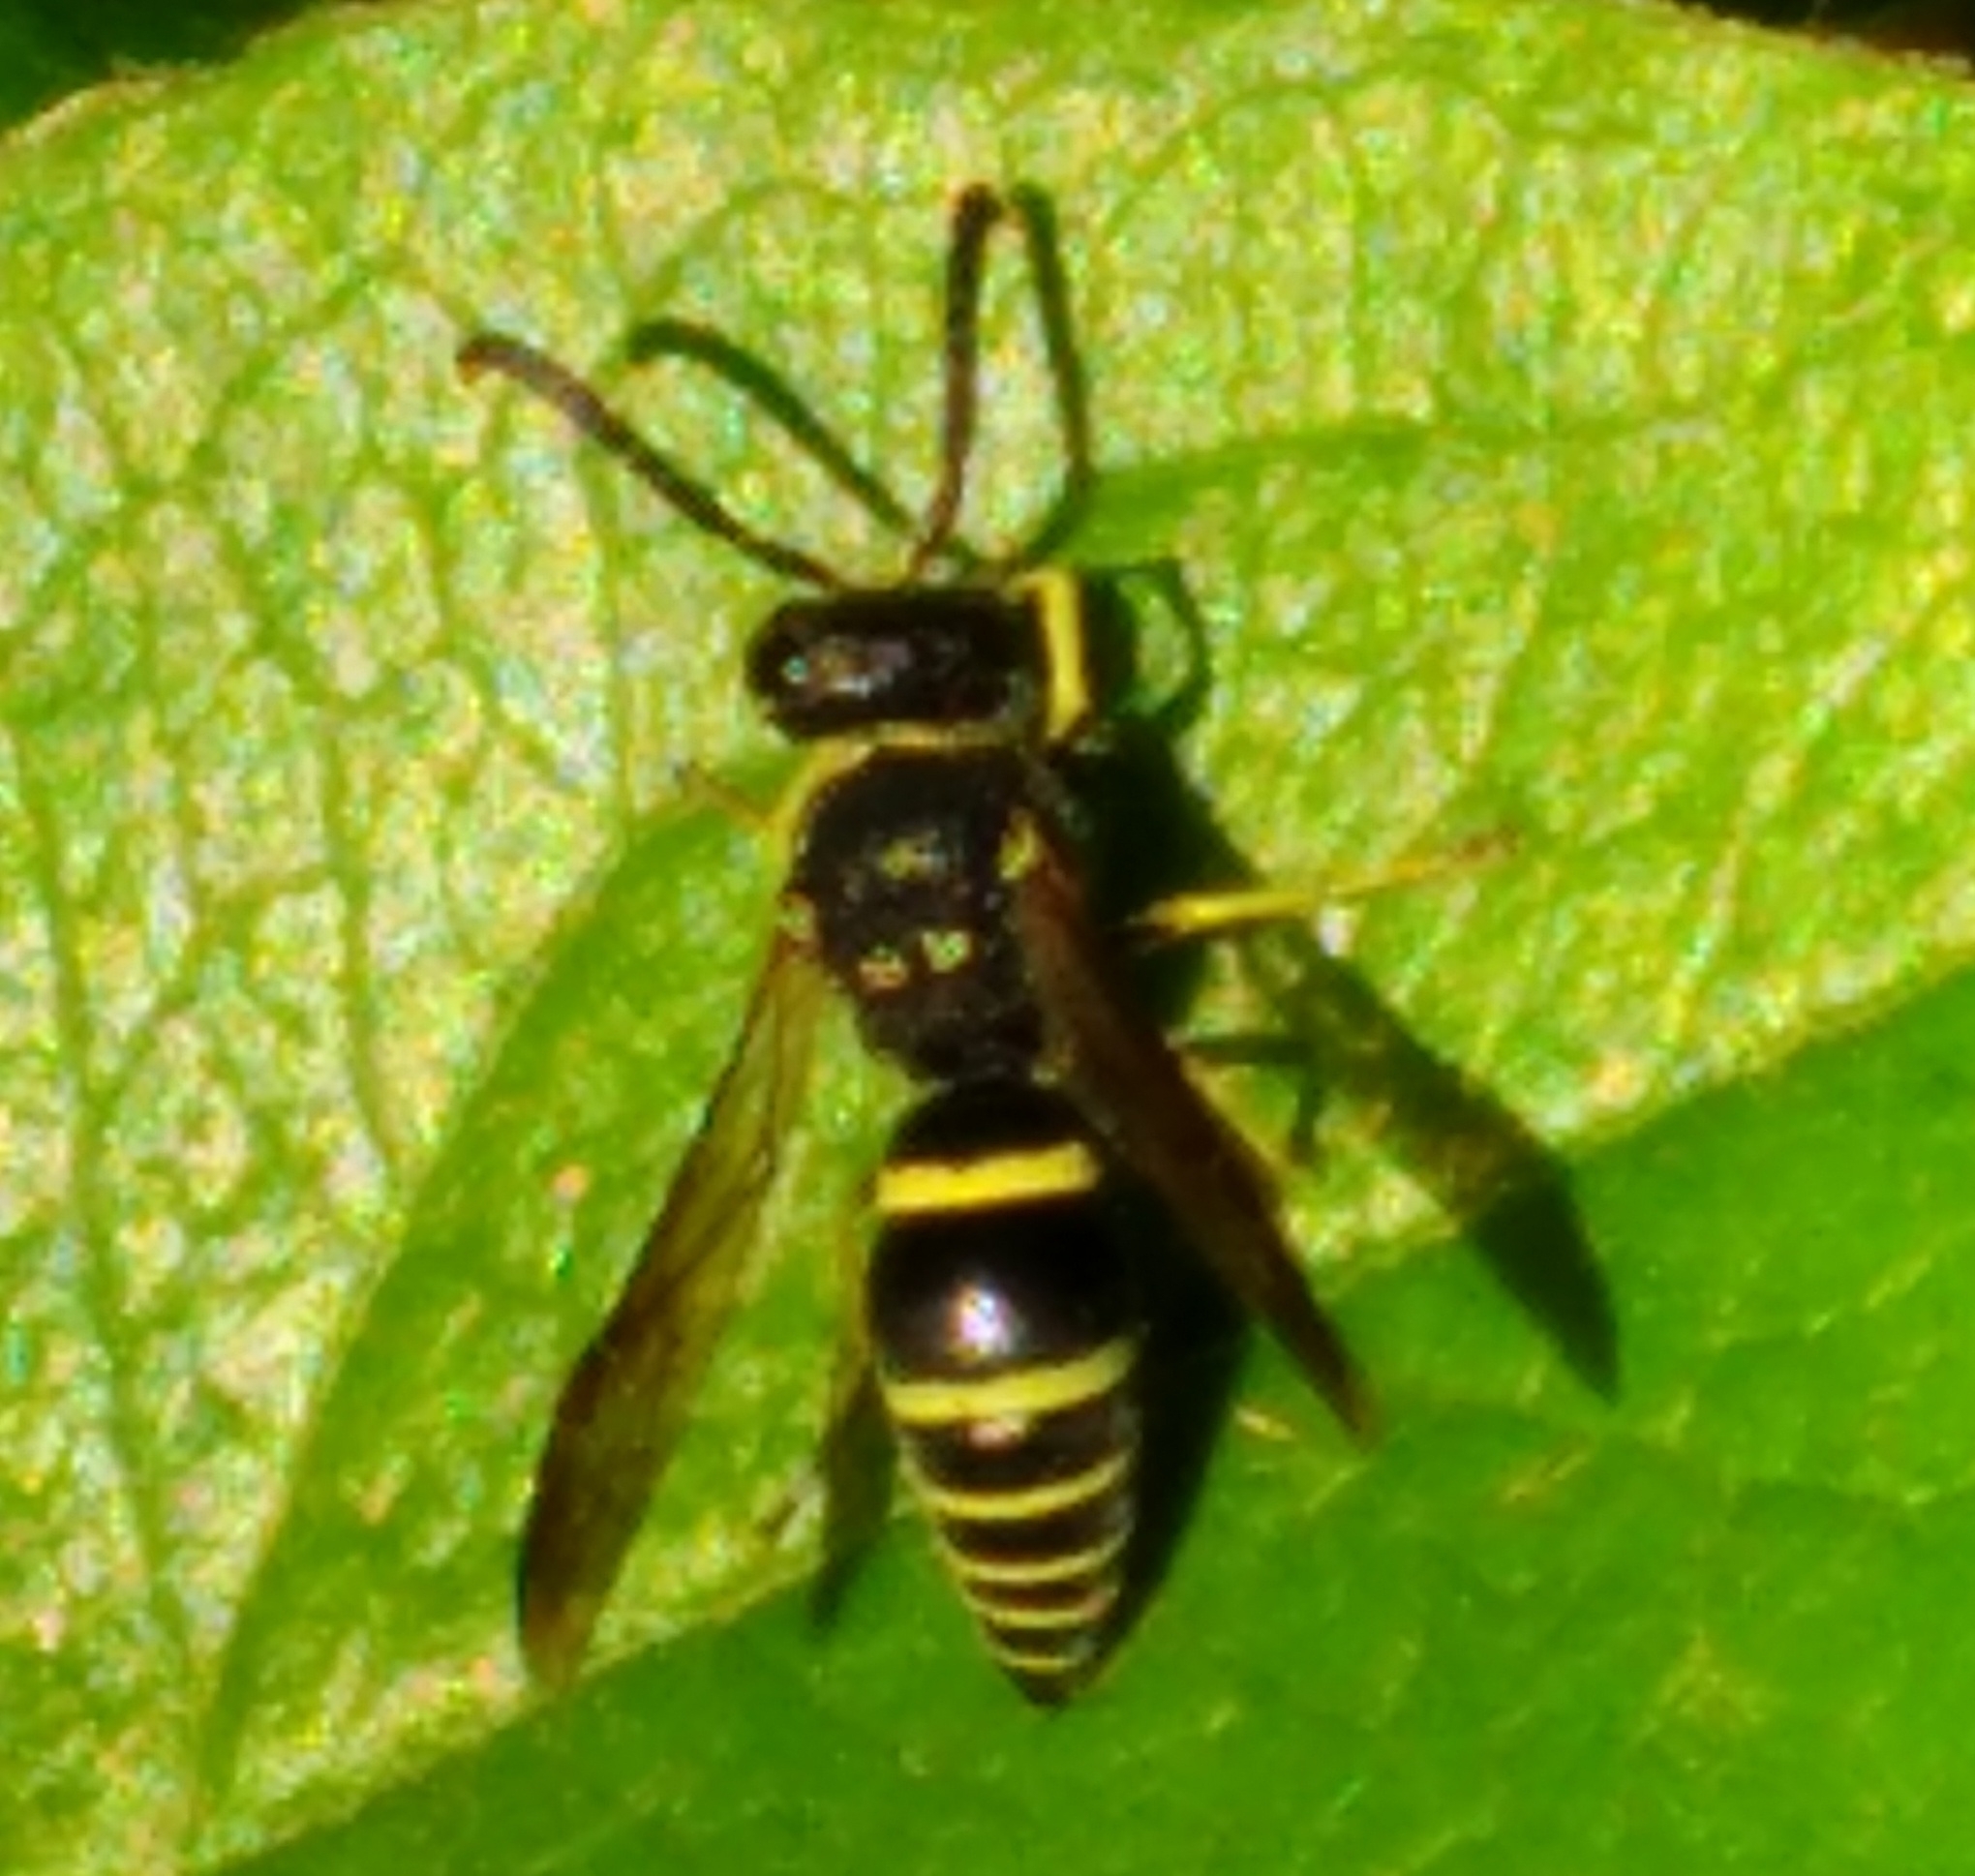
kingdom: Animalia
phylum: Arthropoda
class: Insecta
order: Hymenoptera
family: Vespidae
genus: Ancistrocerus
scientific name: Ancistrocerus adiabatus
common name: Bramble mason wasp
